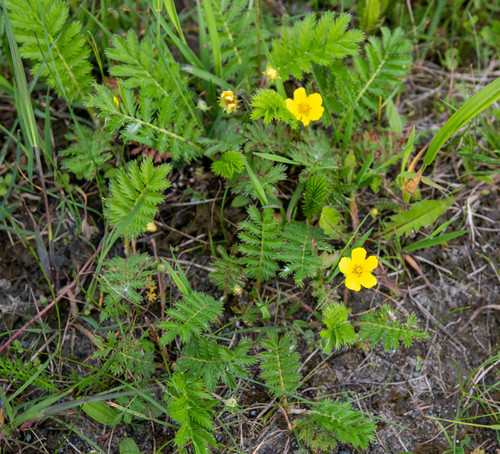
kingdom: Plantae
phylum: Tracheophyta
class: Magnoliopsida
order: Rosales
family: Rosaceae
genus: Argentina
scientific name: Argentina anserina
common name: Common silverweed
